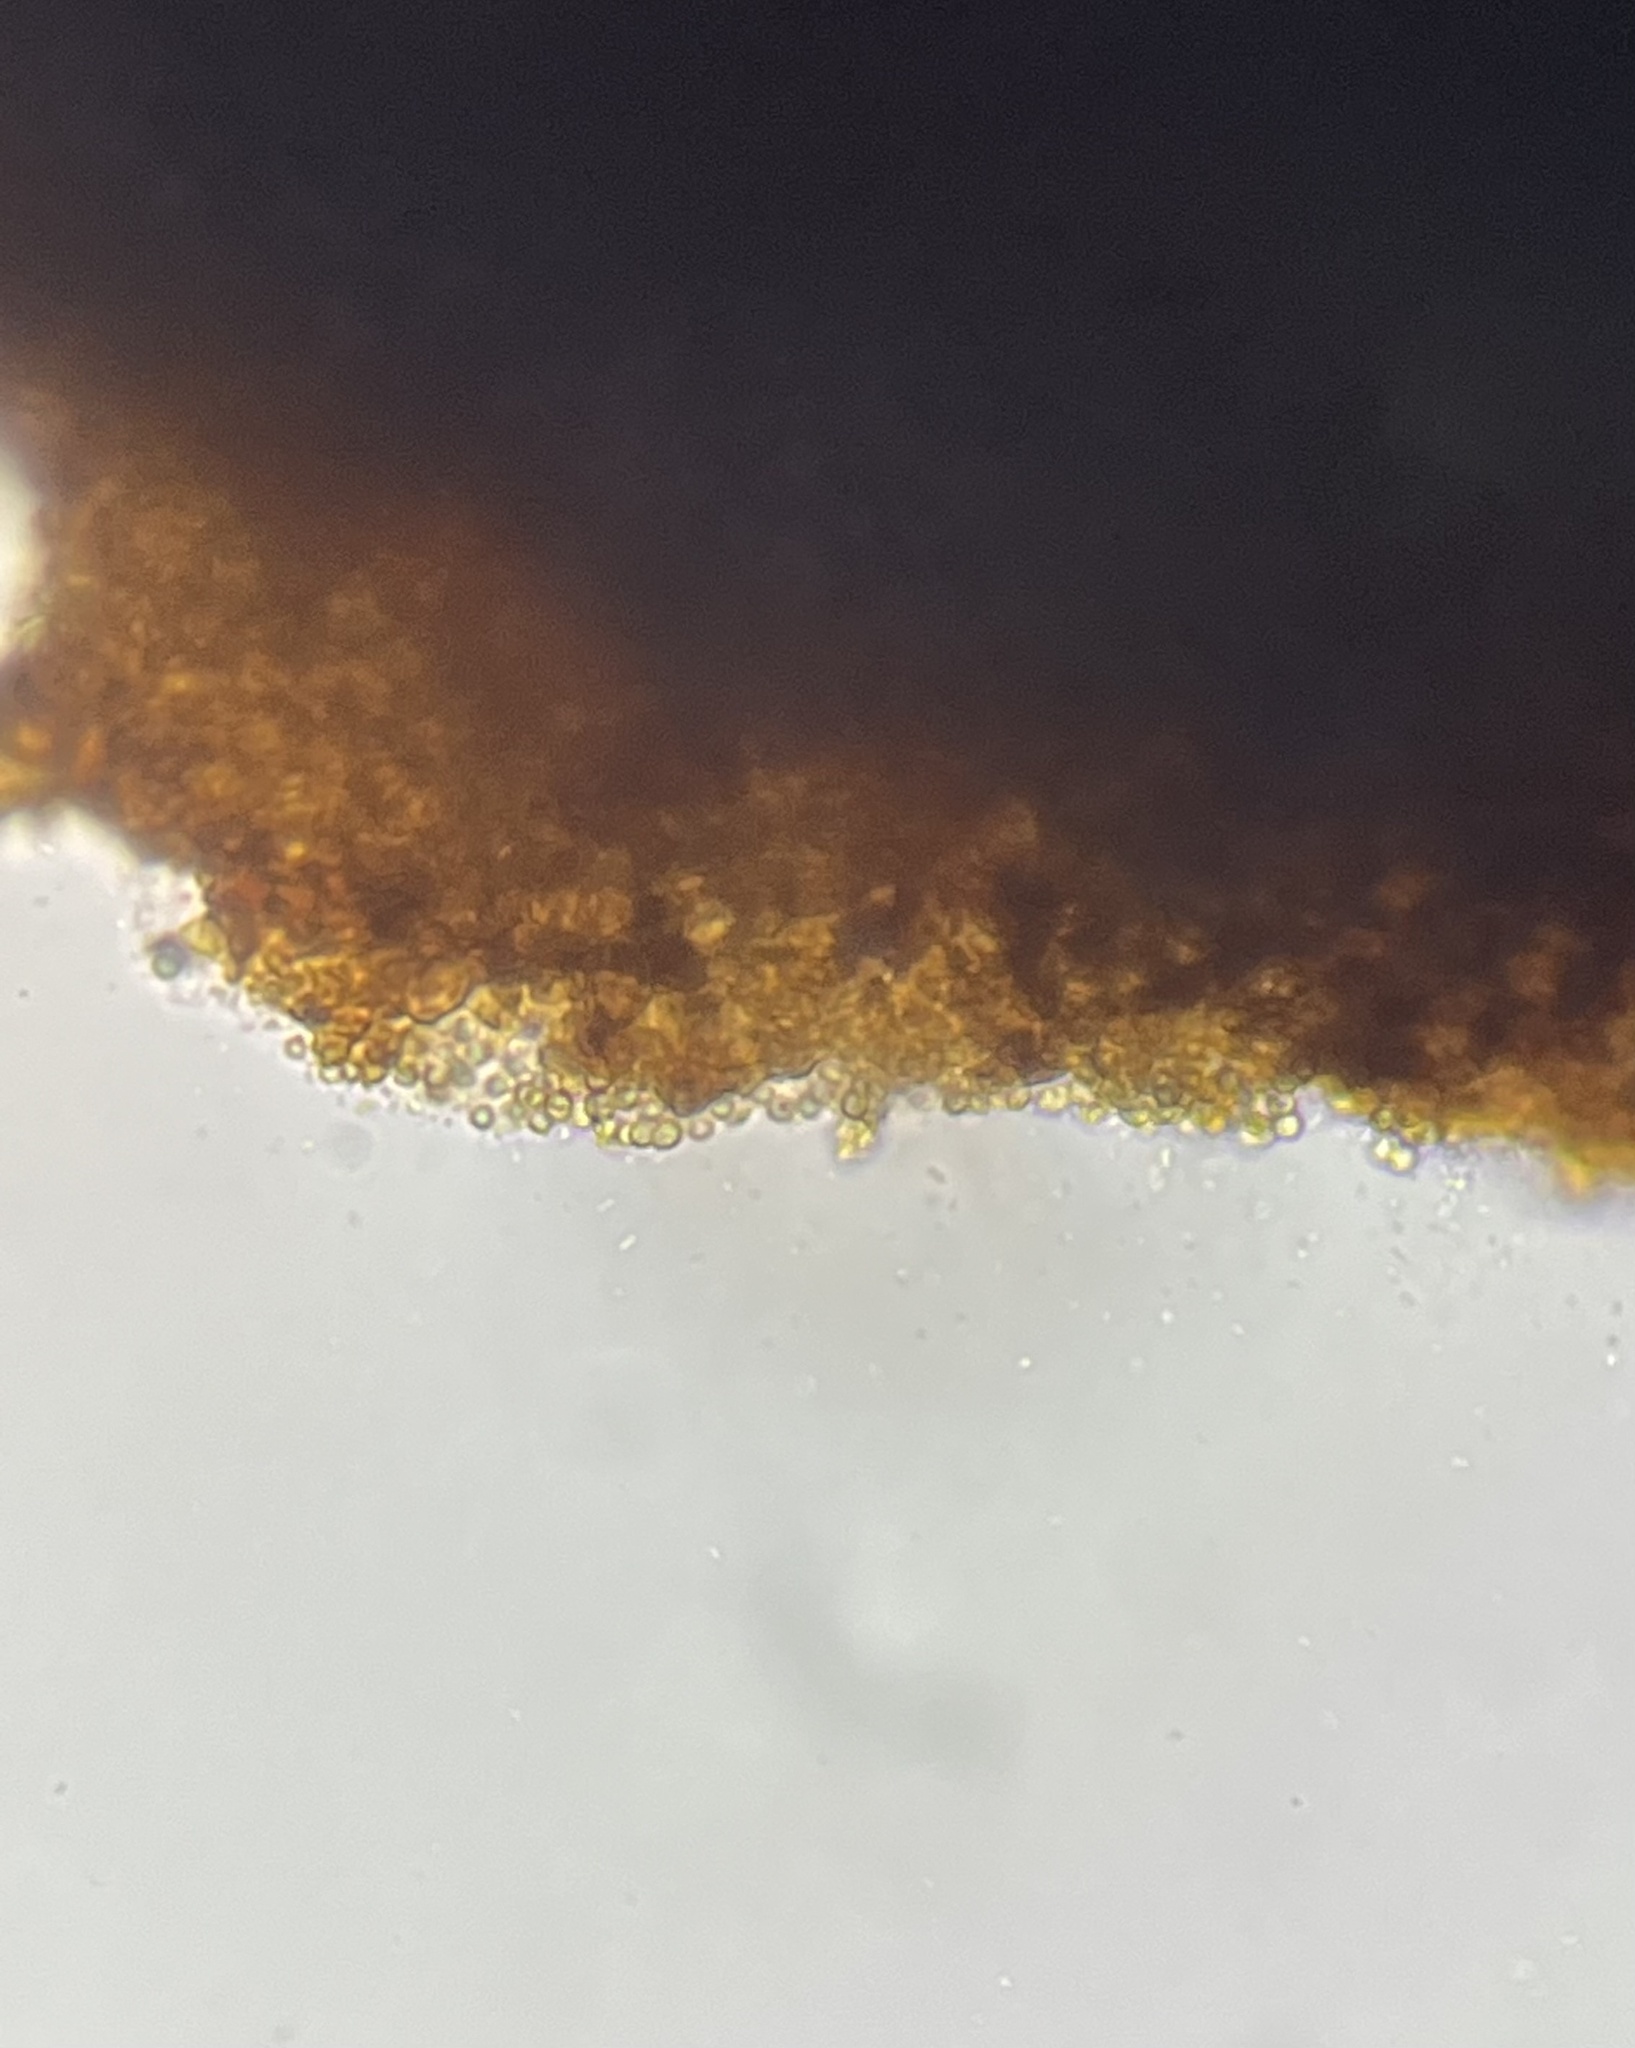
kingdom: Fungi
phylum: Ascomycota
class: Sordariomycetes
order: Hypocreales
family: Hypocreaceae
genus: Trichoderma
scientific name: Trichoderma lixii
